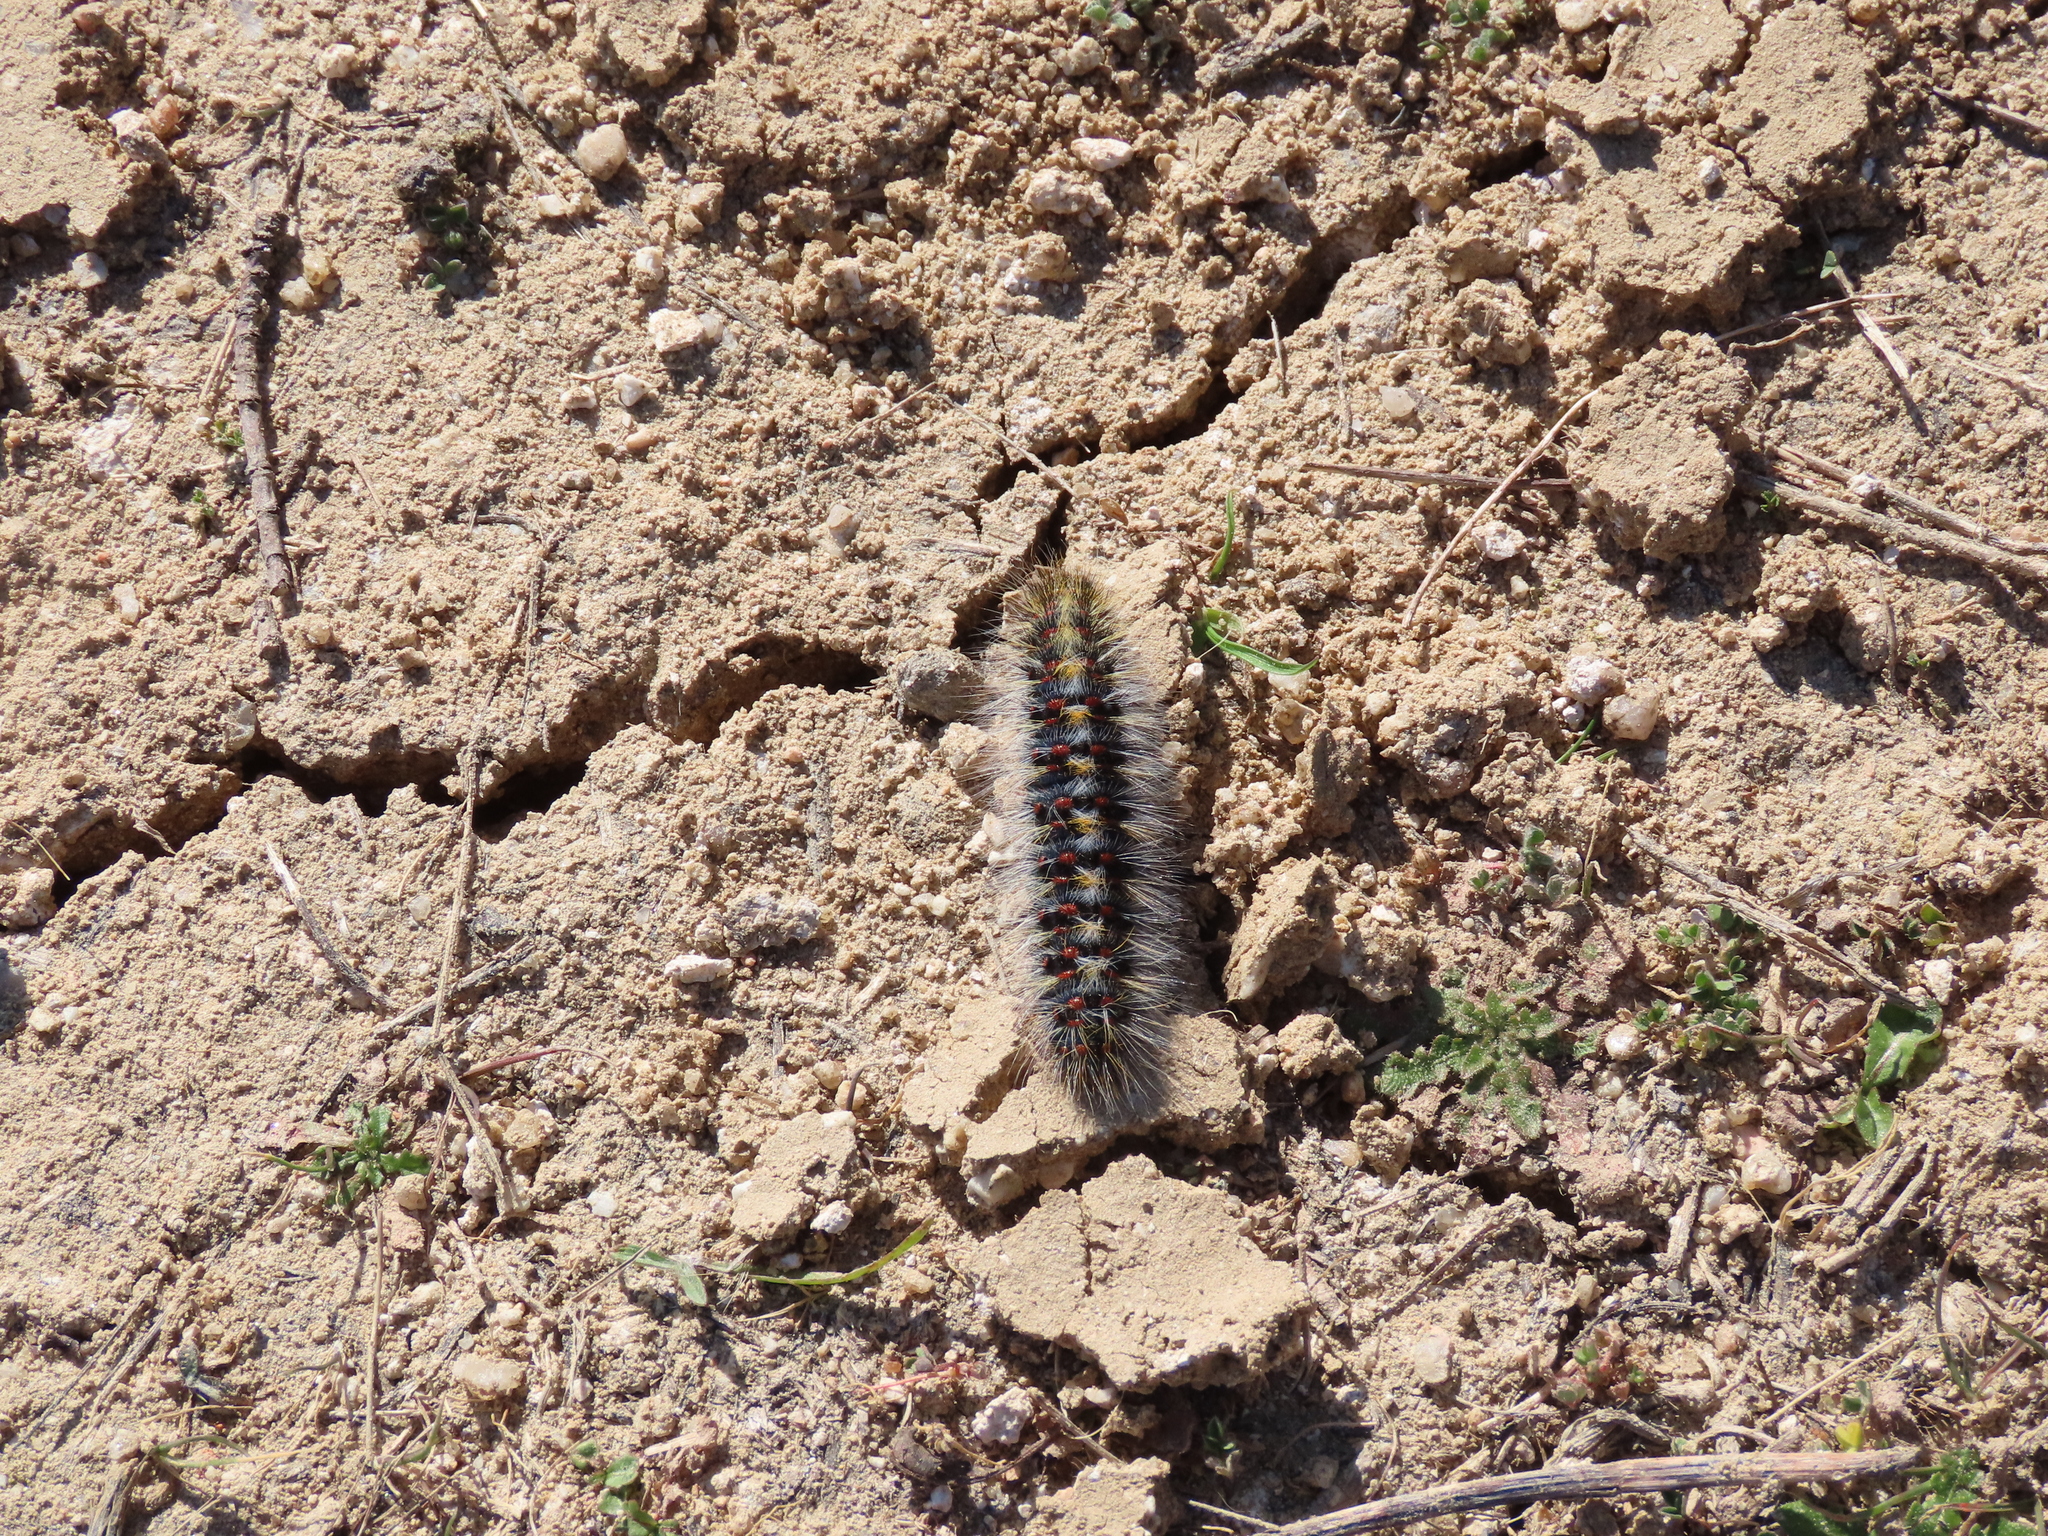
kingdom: Animalia
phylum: Arthropoda
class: Insecta
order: Lepidoptera
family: Lasiocampidae
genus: Chondrostega
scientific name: Chondrostega vandalicia
